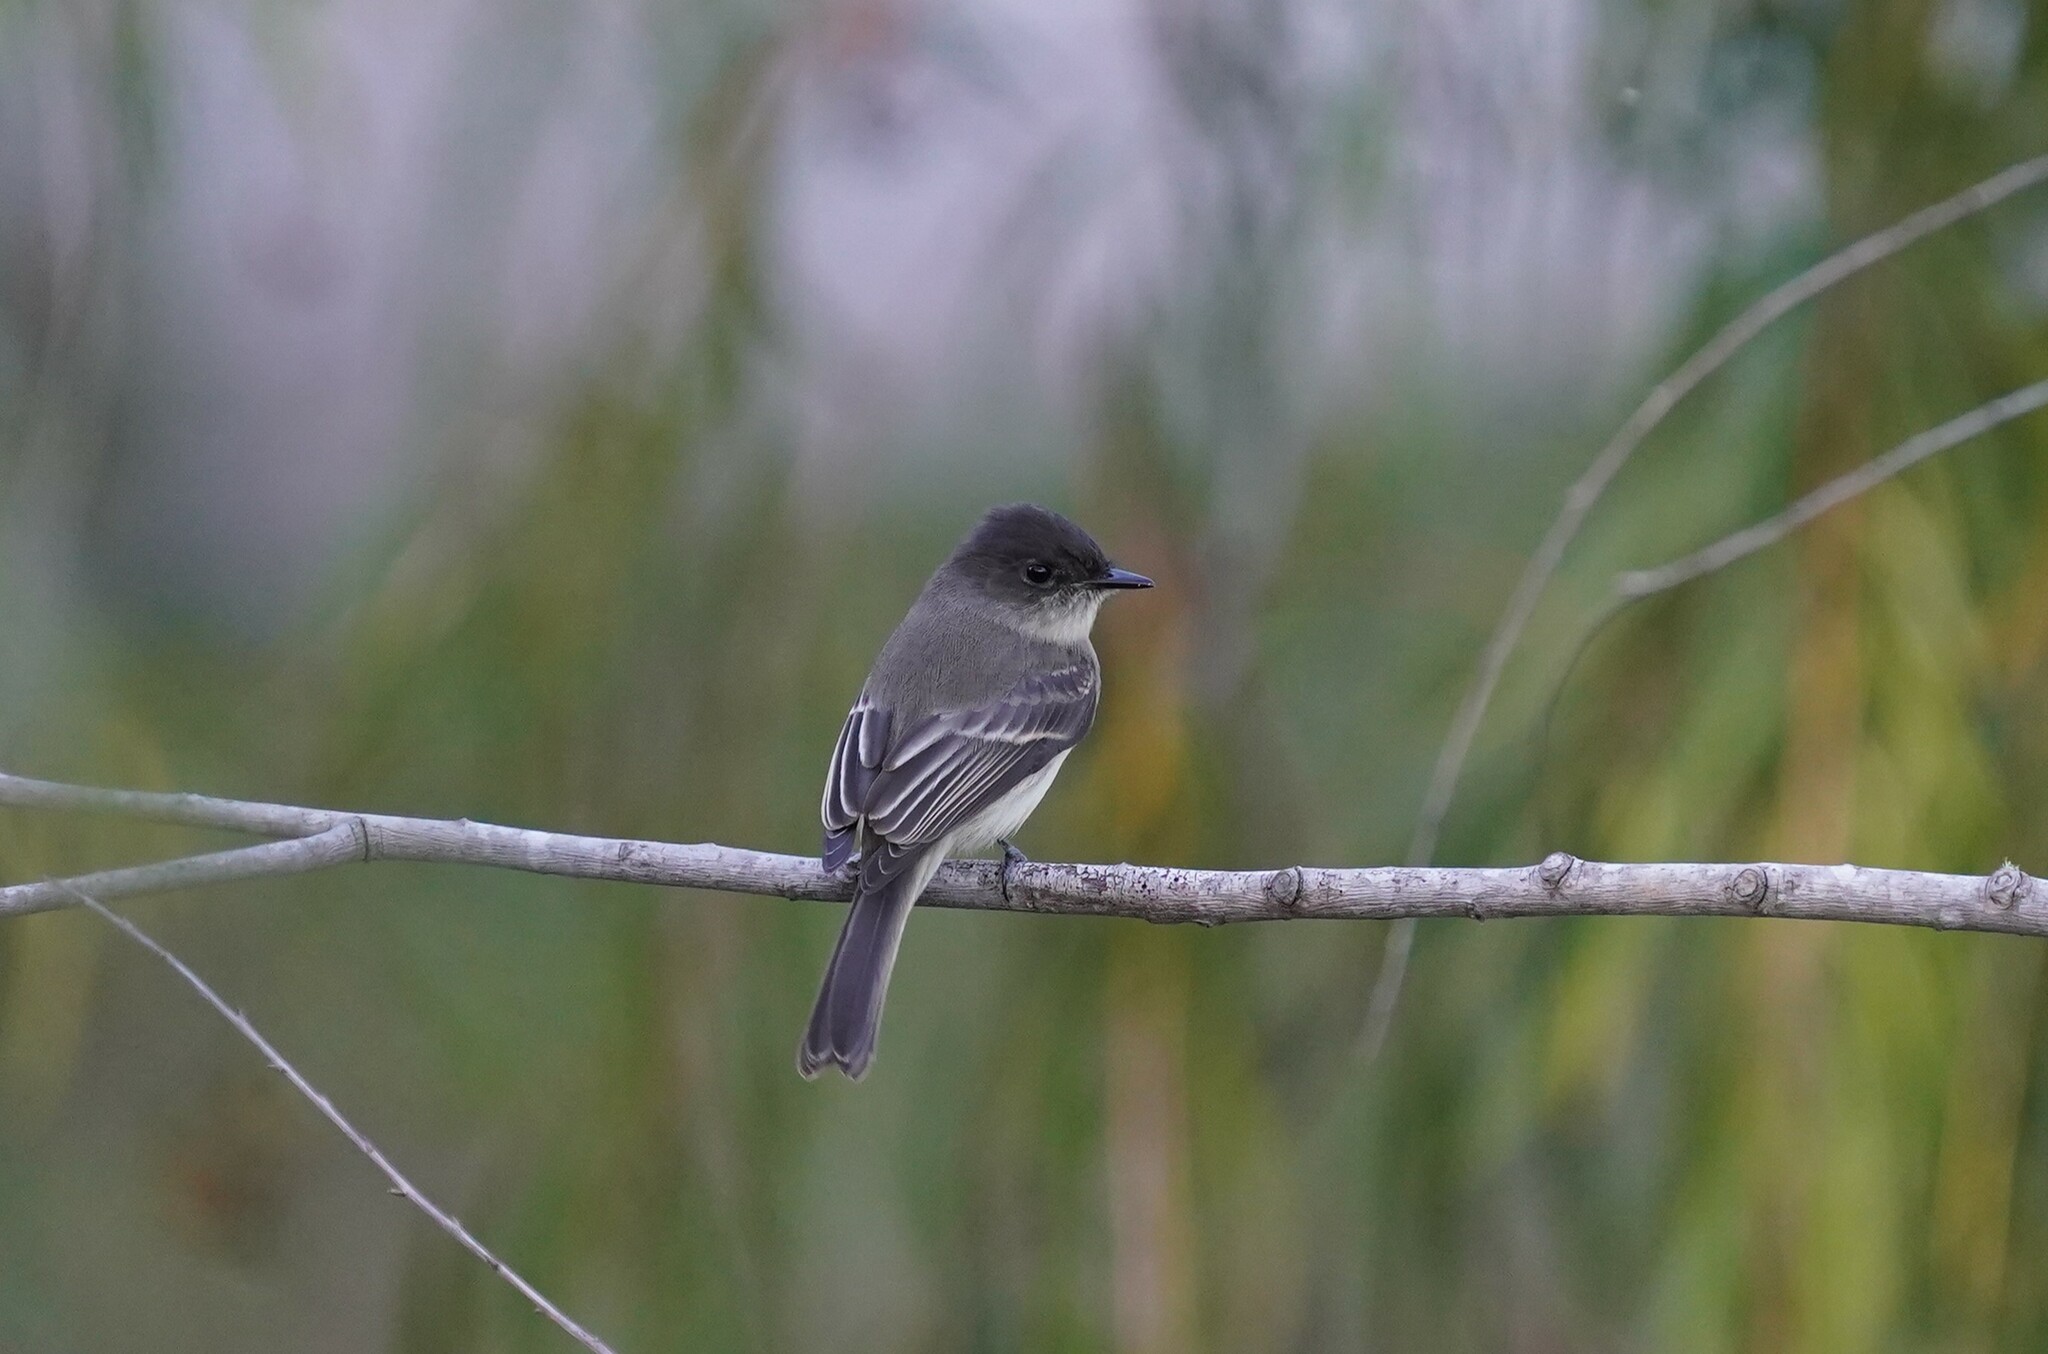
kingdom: Animalia
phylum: Chordata
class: Aves
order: Passeriformes
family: Tyrannidae
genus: Sayornis
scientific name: Sayornis phoebe
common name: Eastern phoebe
